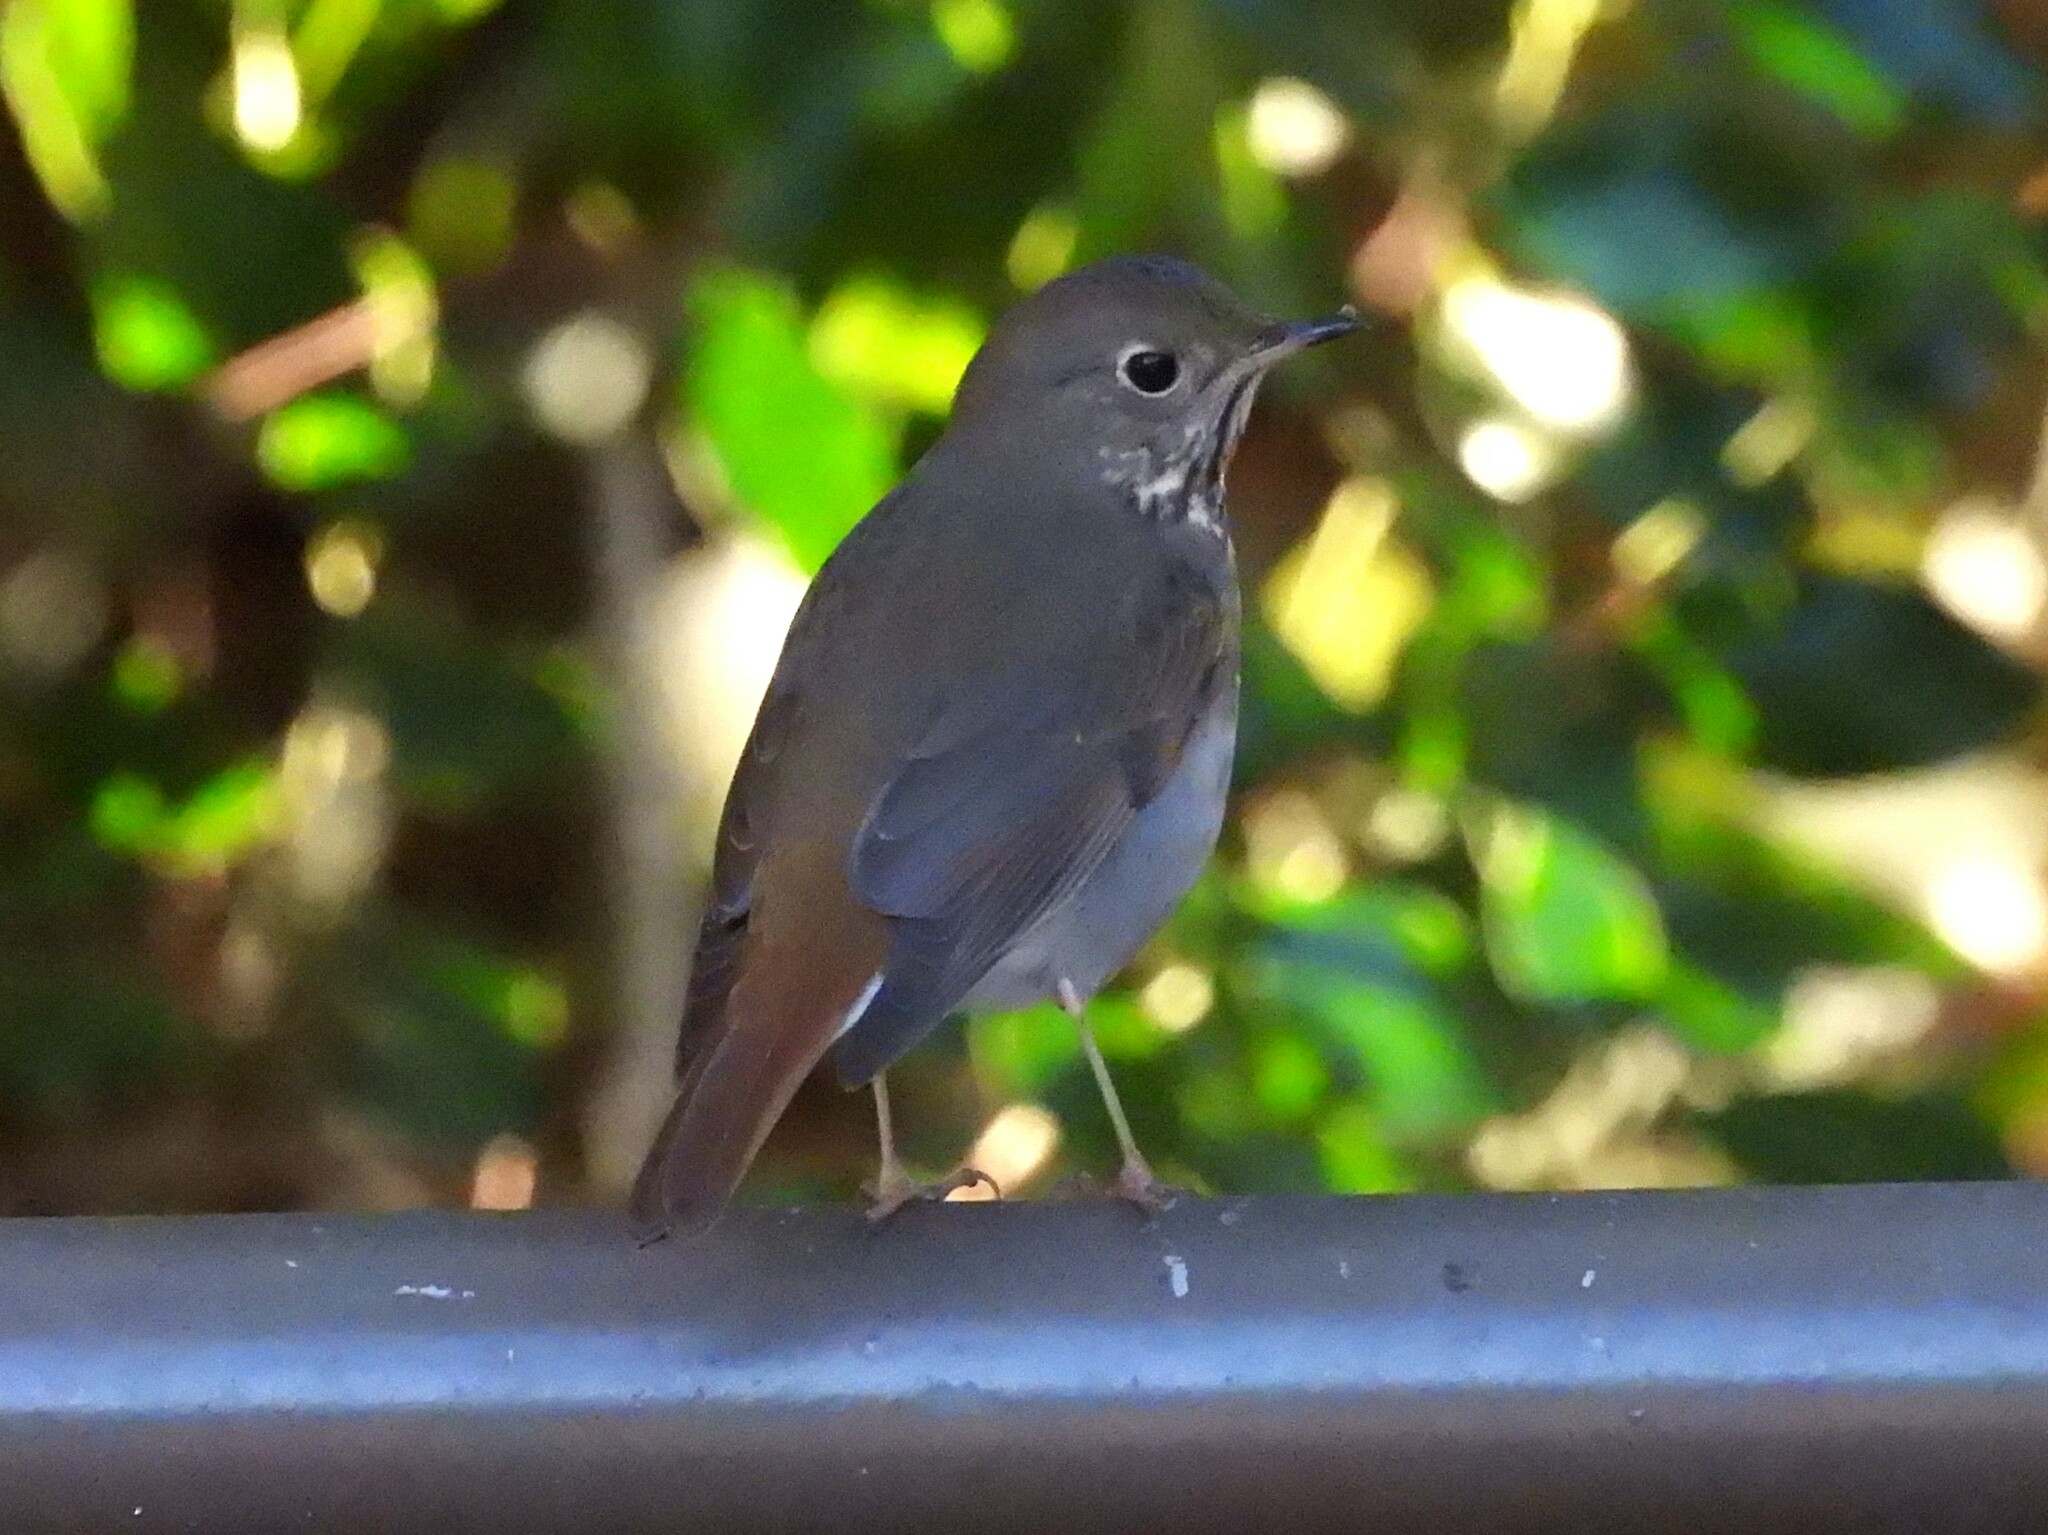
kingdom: Animalia
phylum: Chordata
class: Aves
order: Passeriformes
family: Turdidae
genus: Catharus
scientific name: Catharus guttatus
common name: Hermit thrush
